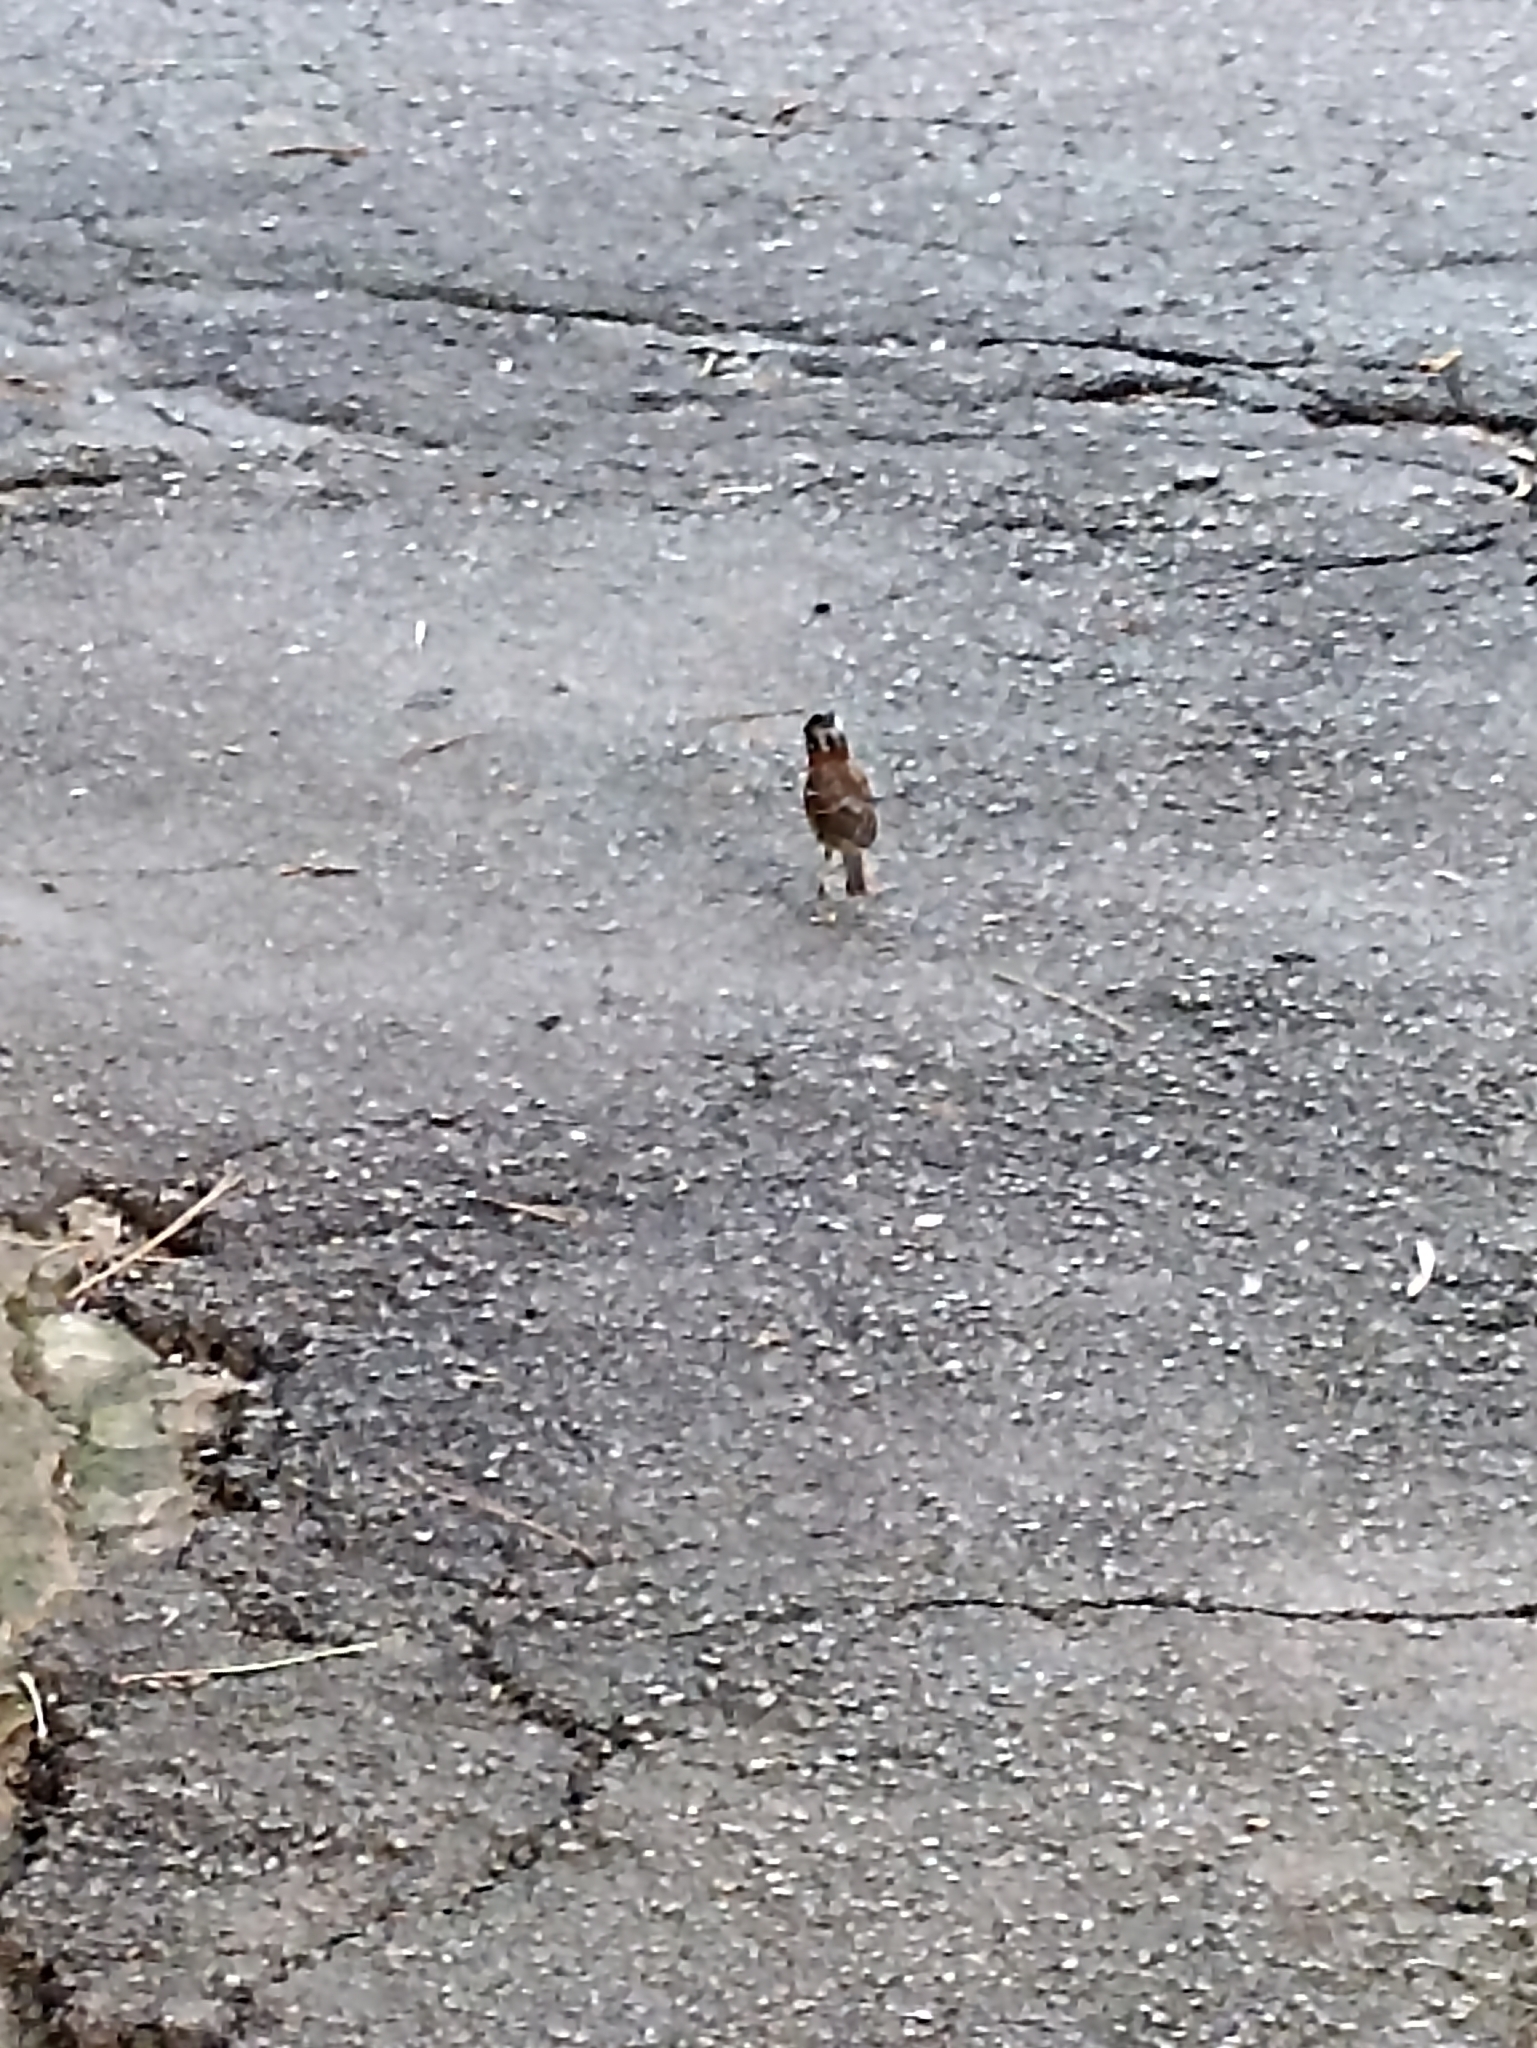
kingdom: Animalia
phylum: Chordata
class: Aves
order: Passeriformes
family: Passerellidae
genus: Zonotrichia
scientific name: Zonotrichia capensis
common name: Rufous-collared sparrow
